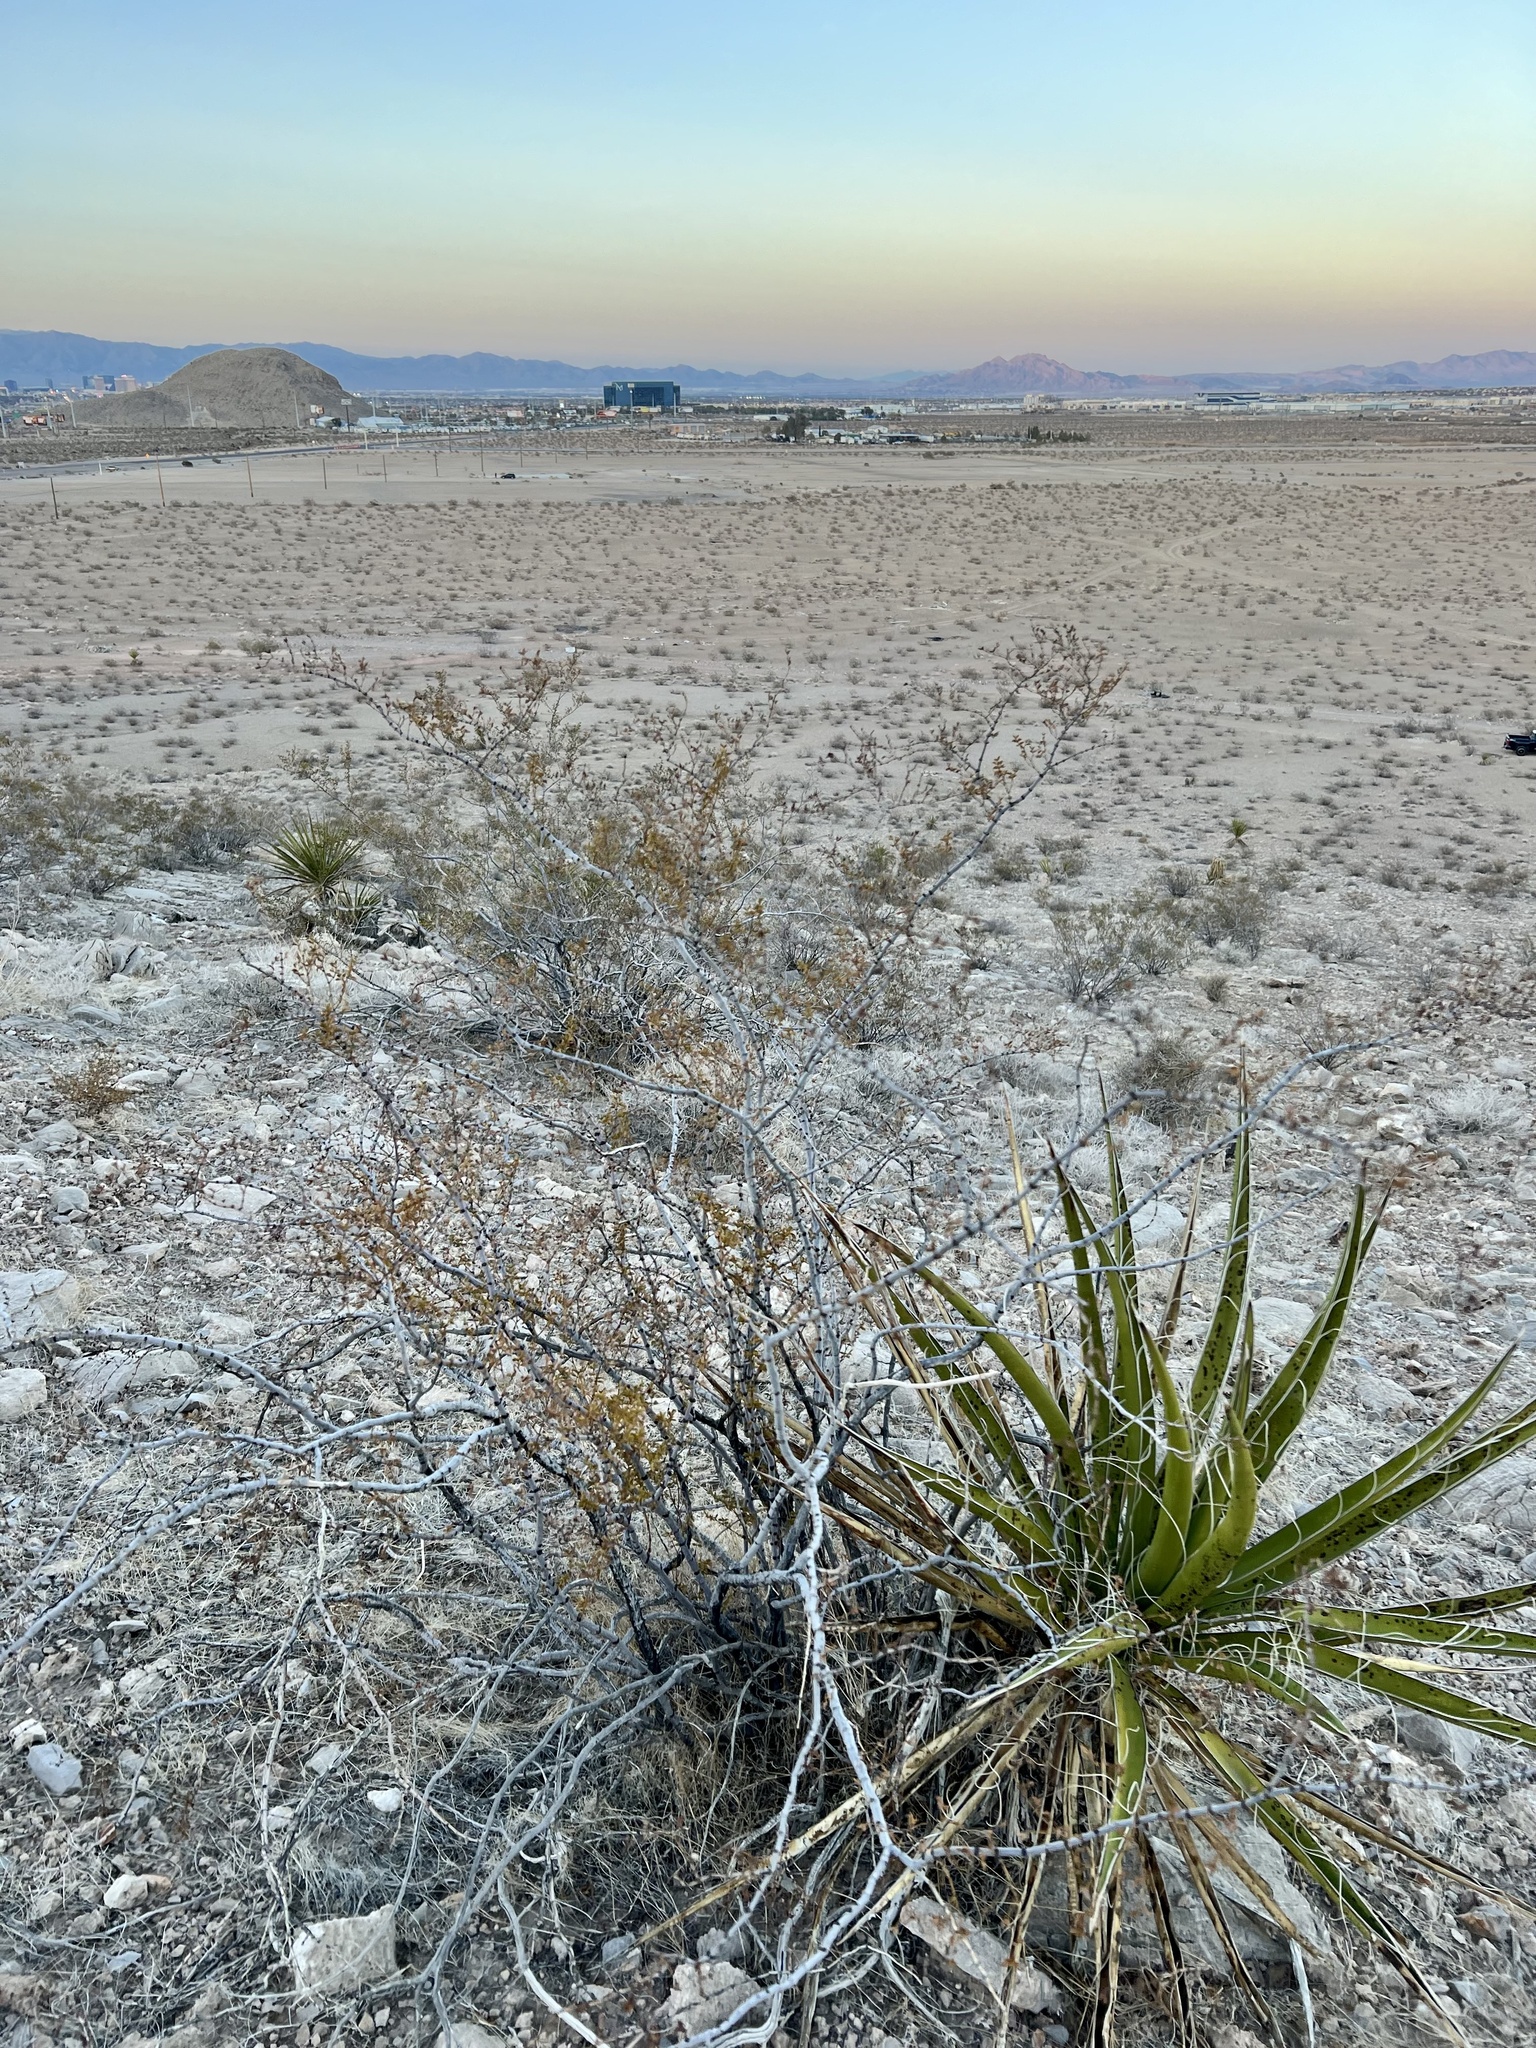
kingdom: Plantae
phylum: Tracheophyta
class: Magnoliopsida
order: Zygophyllales
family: Zygophyllaceae
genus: Larrea
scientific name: Larrea tridentata
